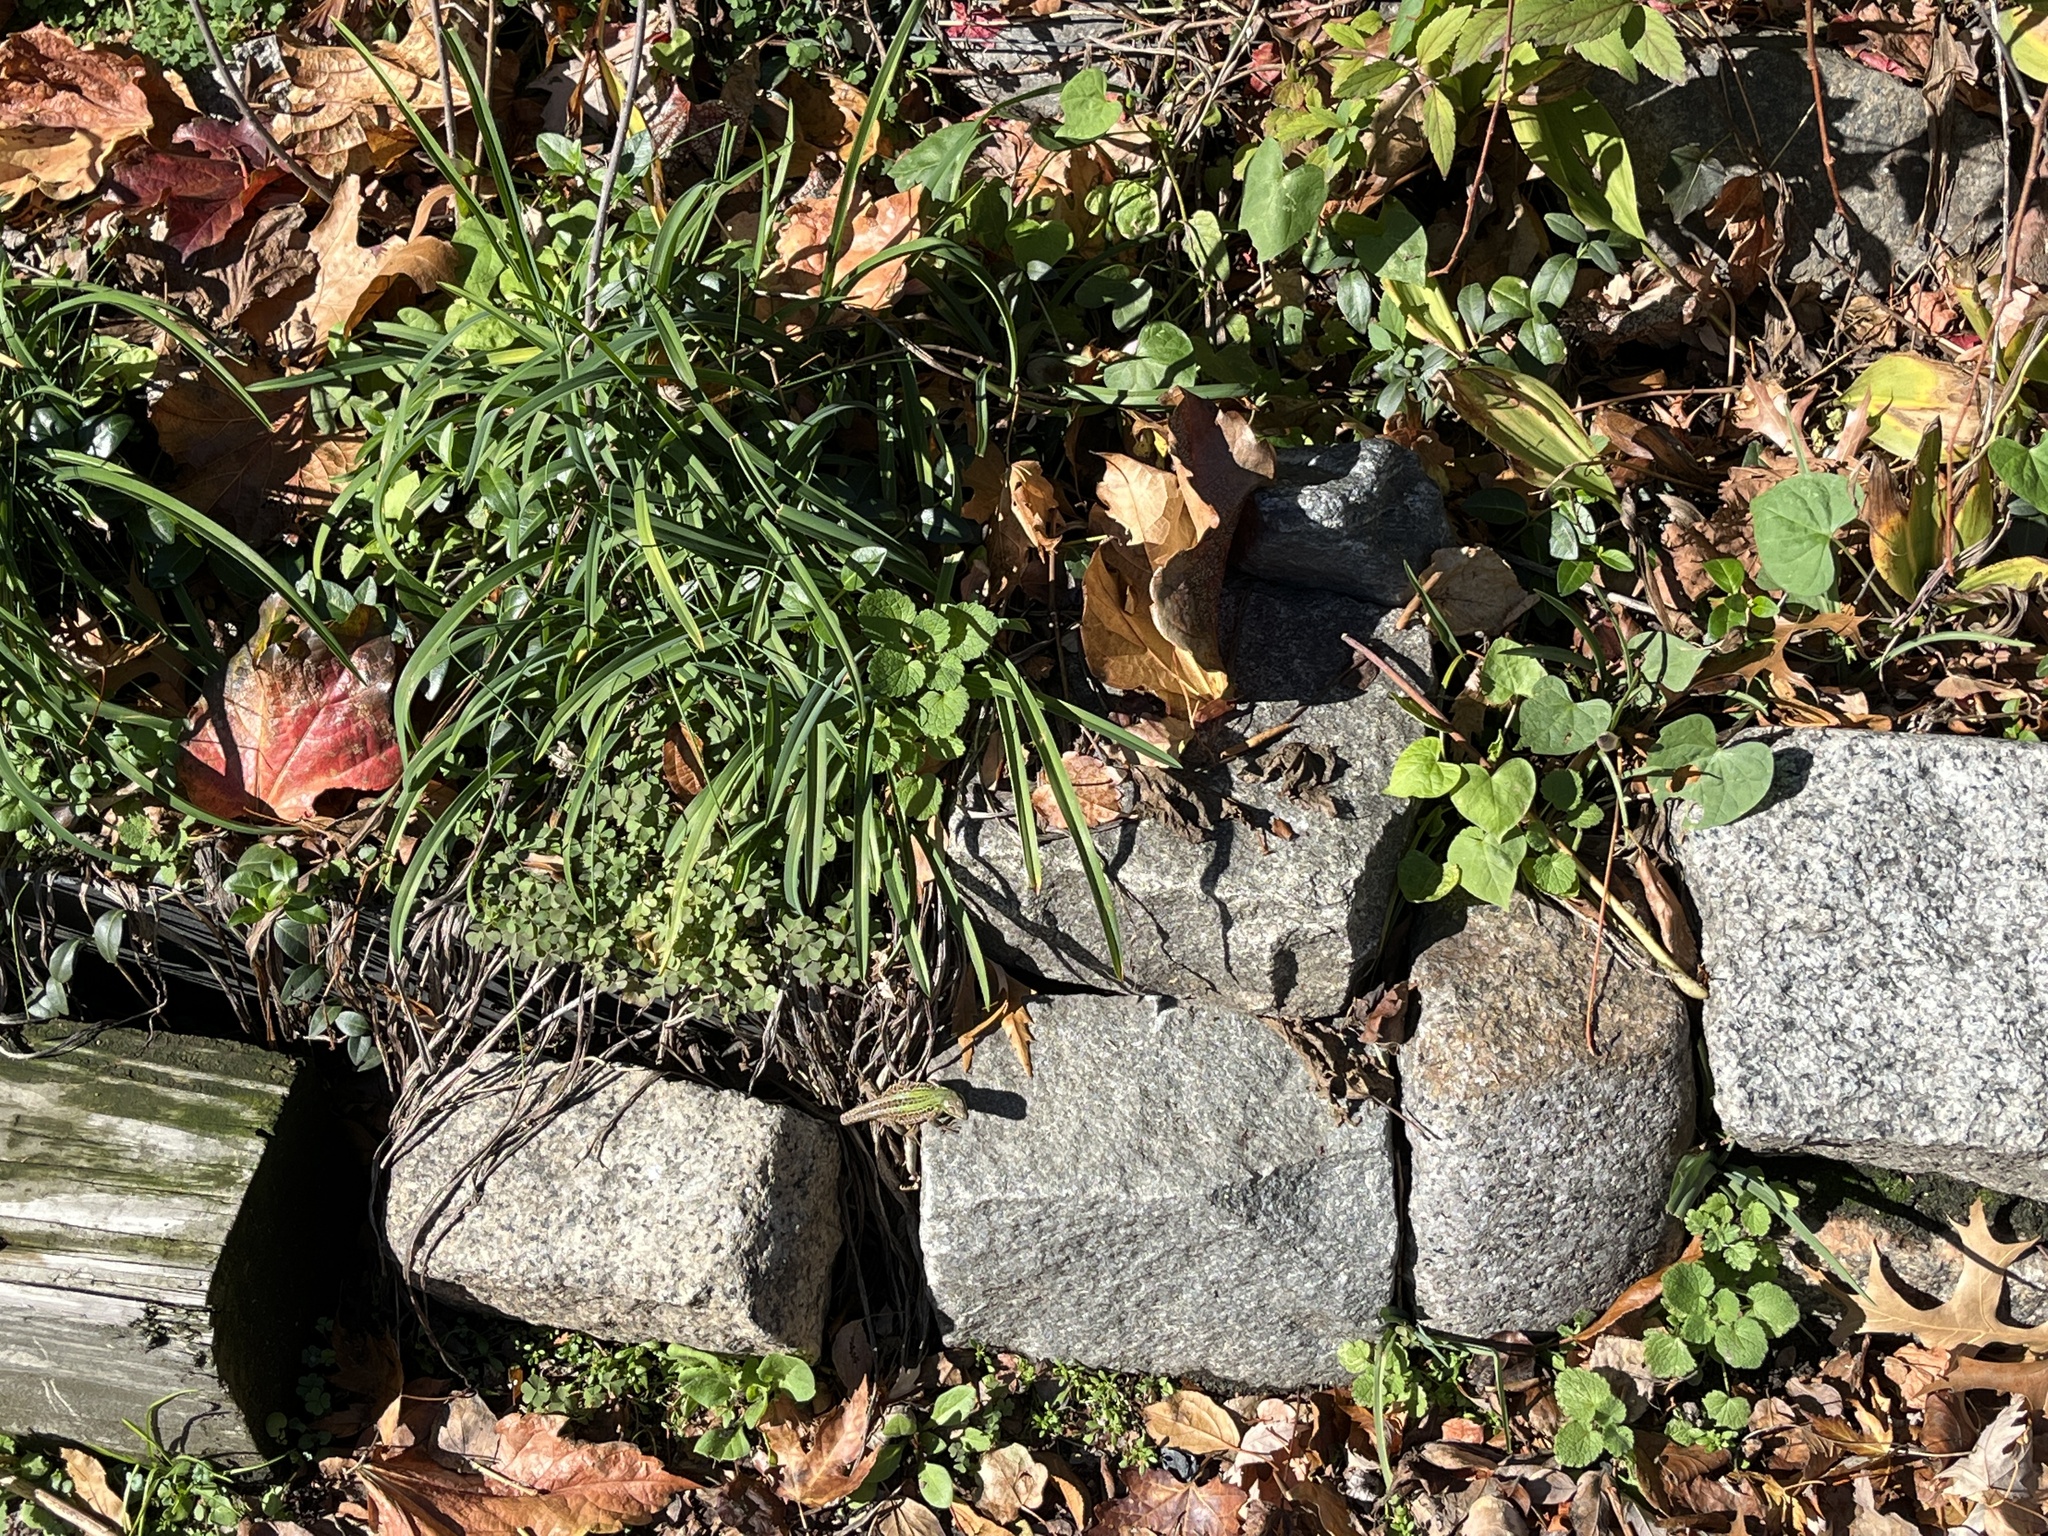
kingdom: Animalia
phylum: Chordata
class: Squamata
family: Lacertidae
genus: Podarcis
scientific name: Podarcis siculus
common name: Italian wall lizard
